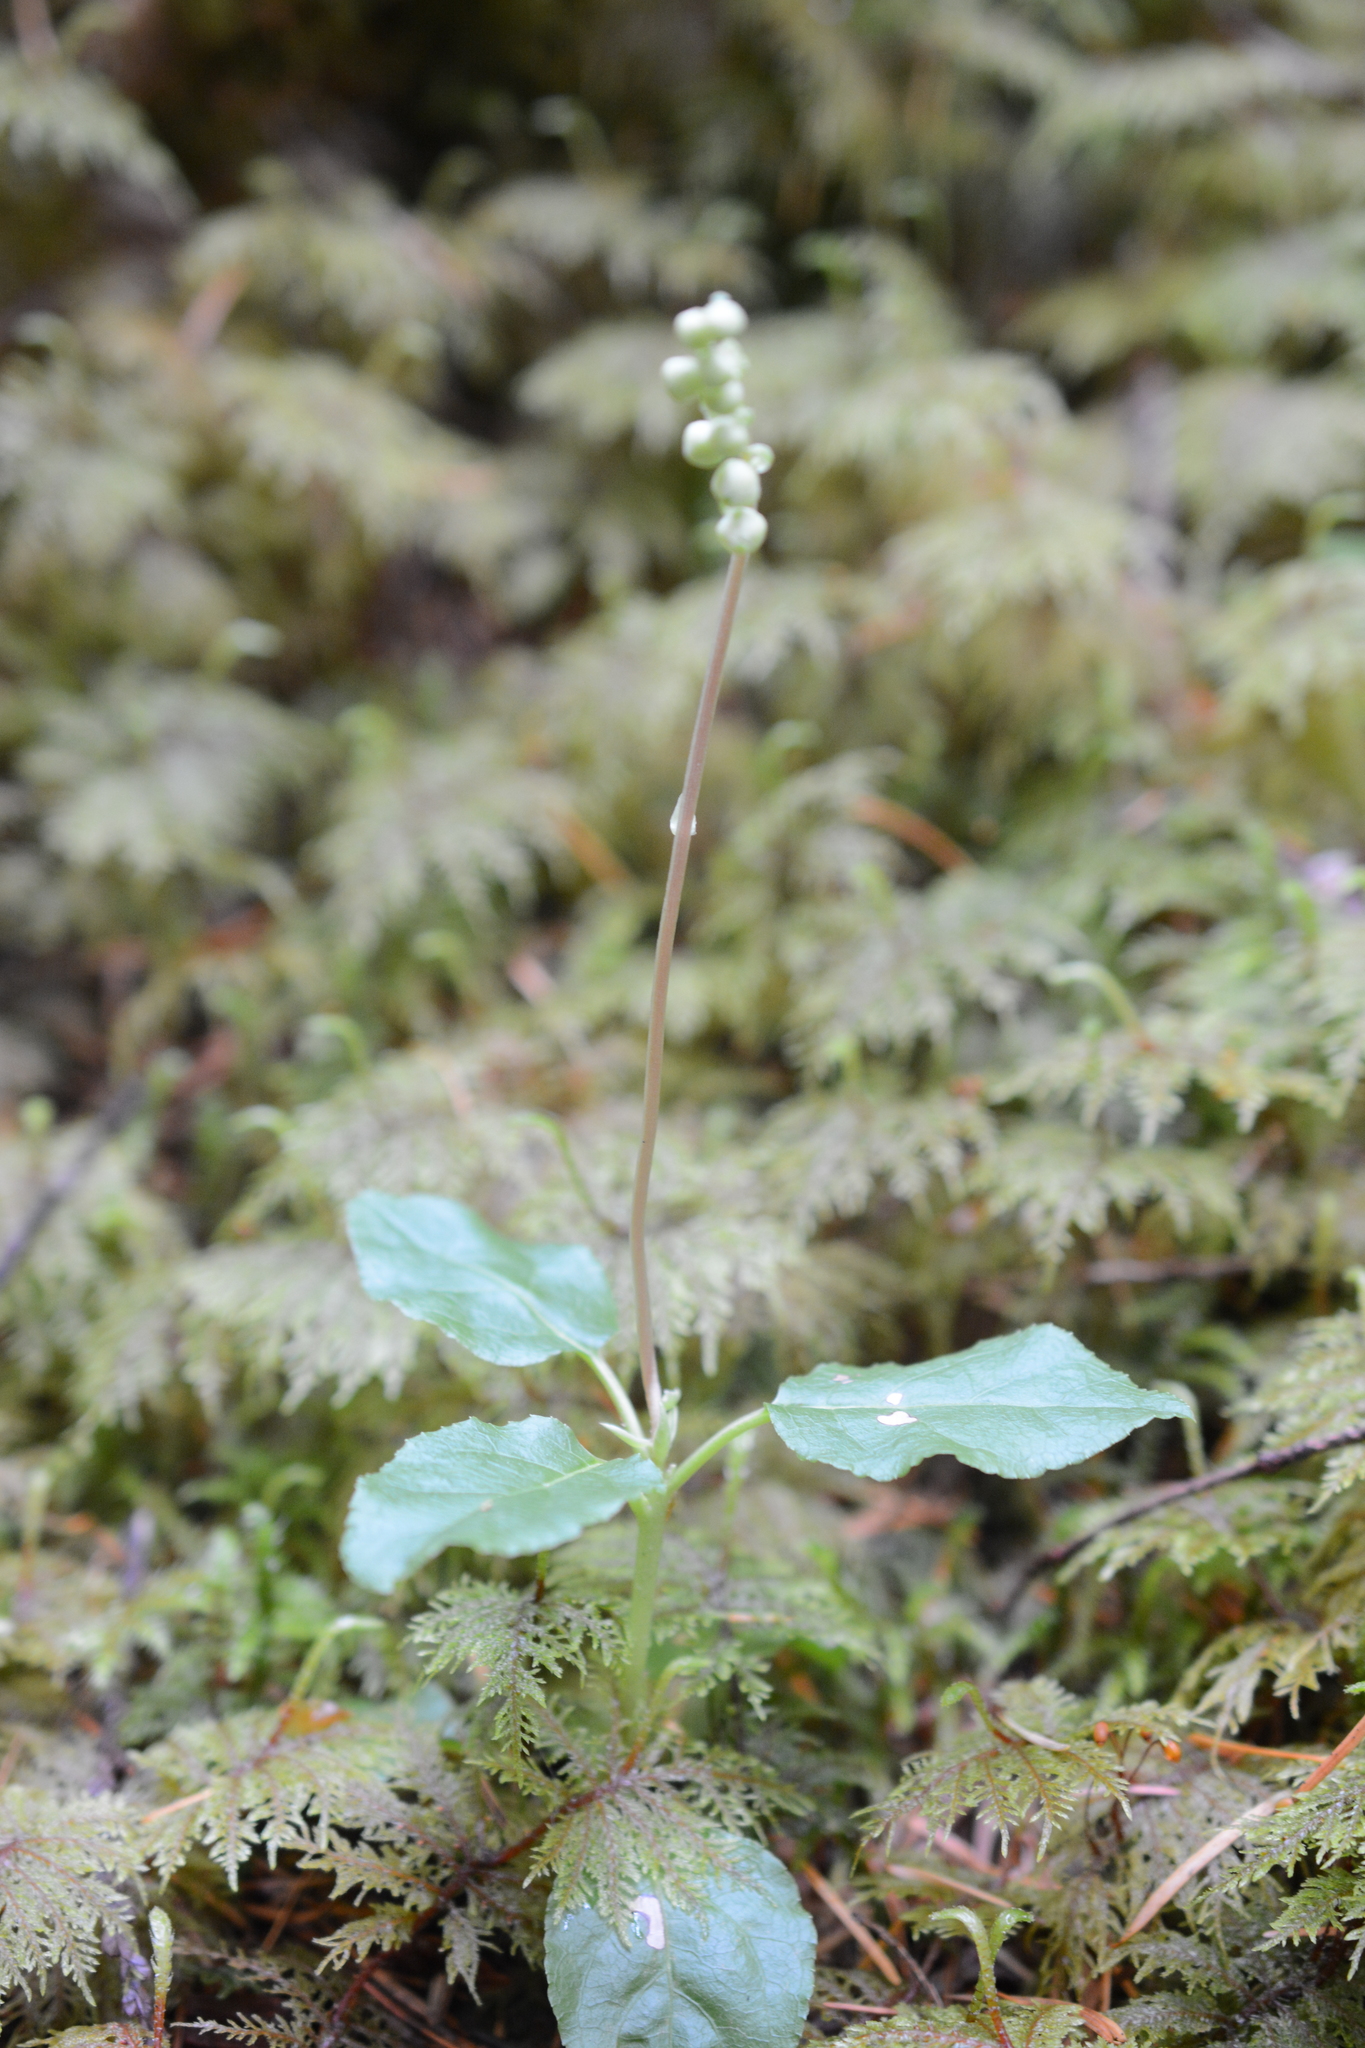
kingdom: Plantae
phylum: Tracheophyta
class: Magnoliopsida
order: Ericales
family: Ericaceae
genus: Orthilia
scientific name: Orthilia secunda
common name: One-sided orthilia
